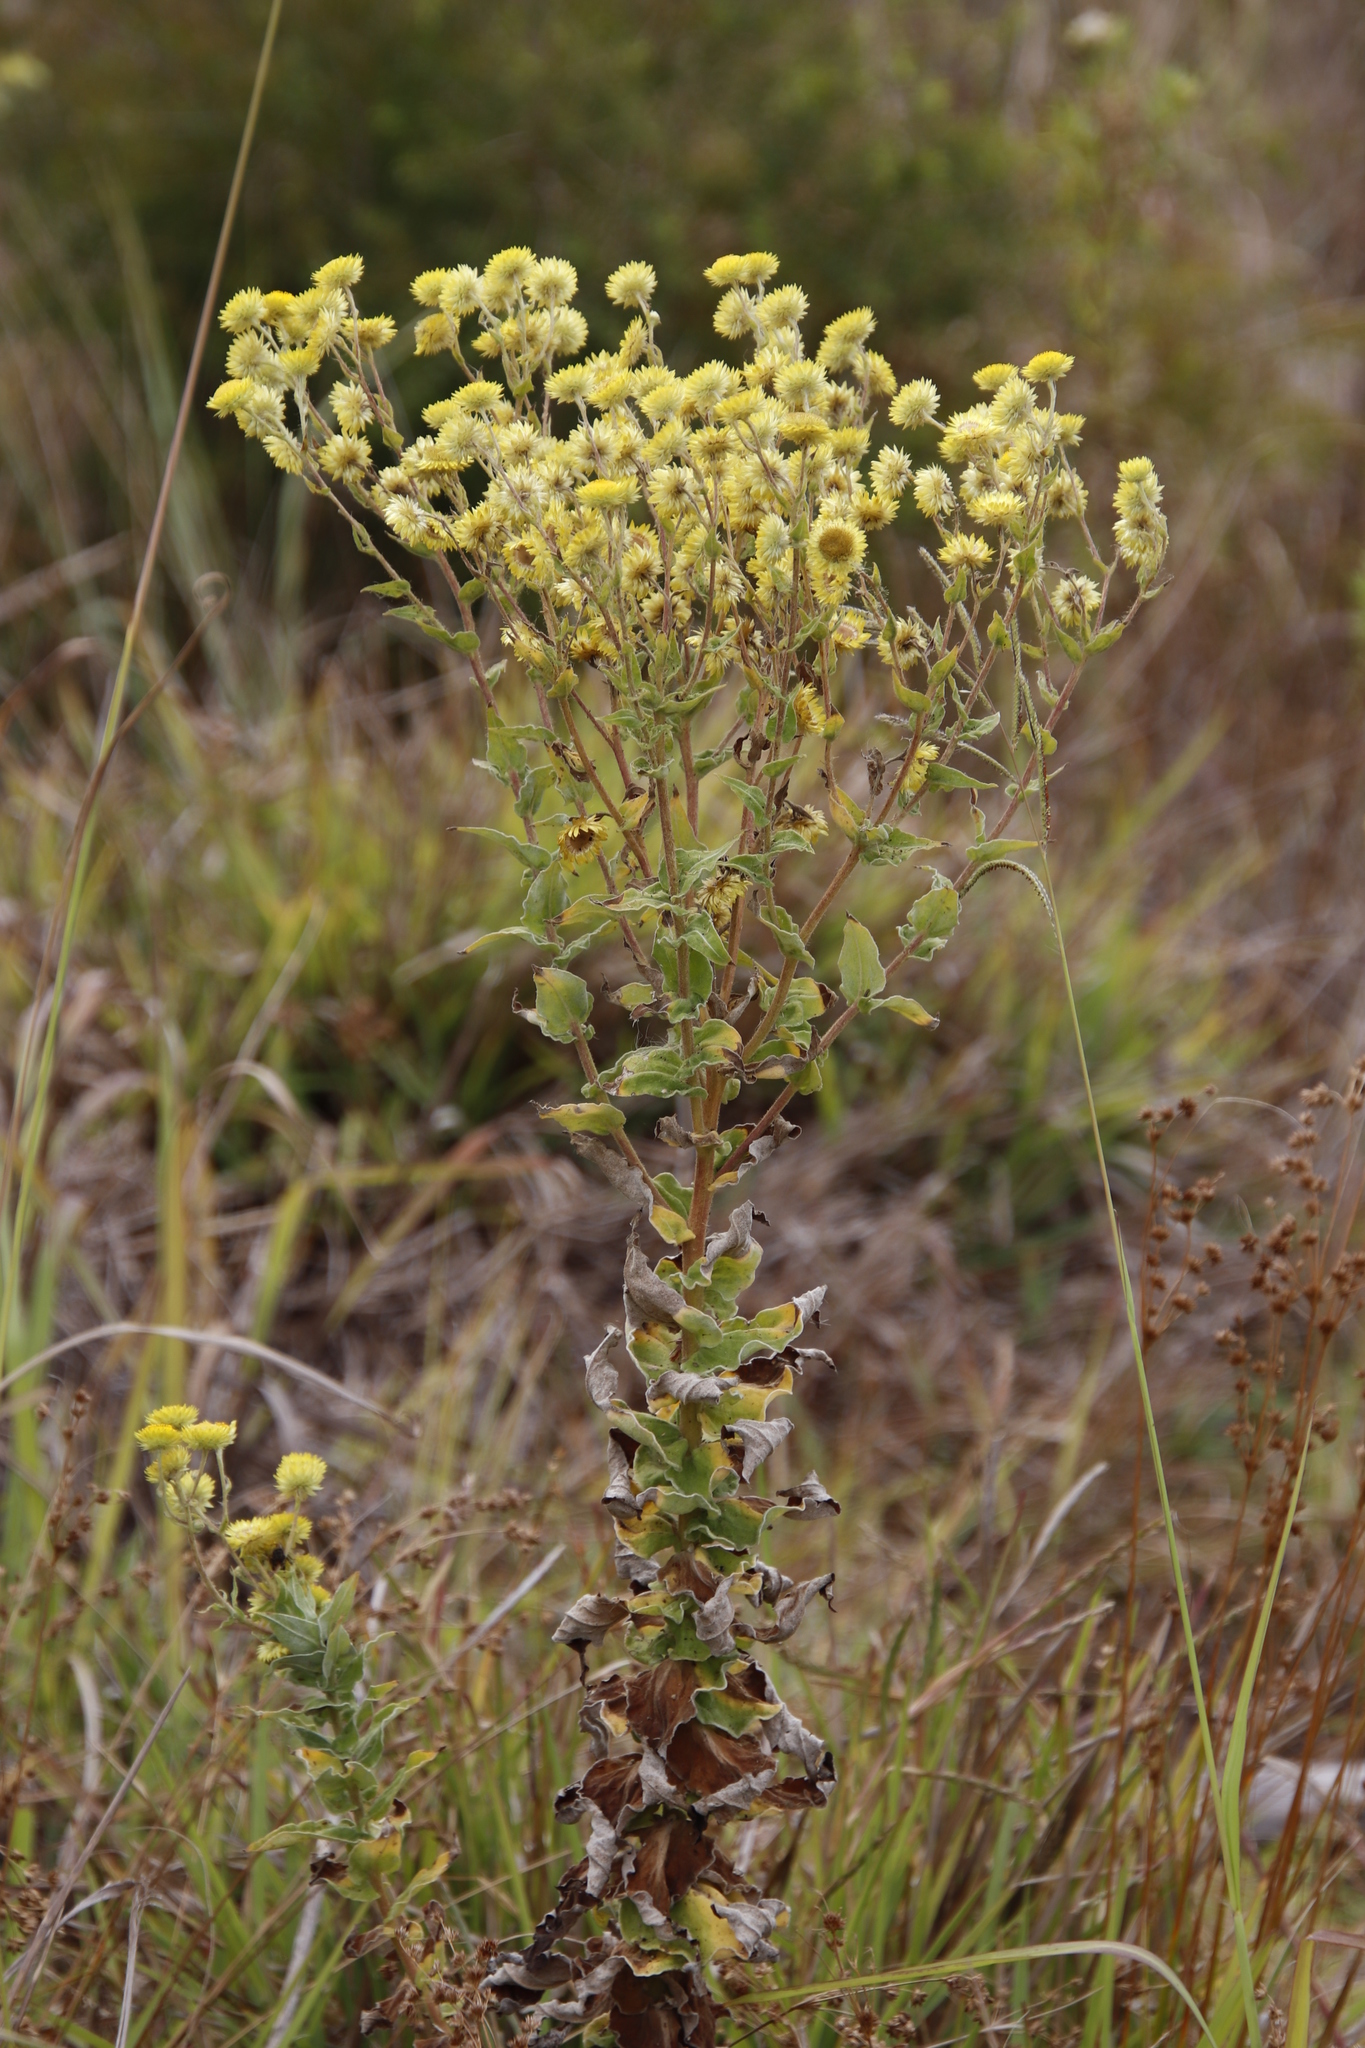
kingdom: Plantae
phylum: Tracheophyta
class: Magnoliopsida
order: Asterales
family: Asteraceae
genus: Helichrysum
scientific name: Helichrysum foetidum
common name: Stinking everlasting
